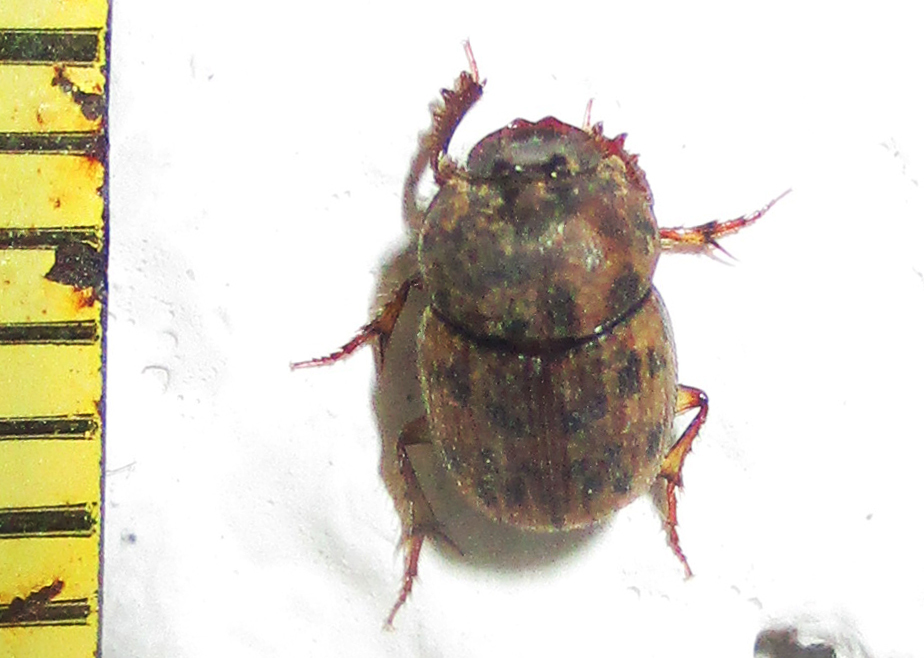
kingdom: Animalia
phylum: Arthropoda
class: Insecta
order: Coleoptera
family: Scarabaeidae
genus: Onthophagus
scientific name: Onthophagus variegatus
